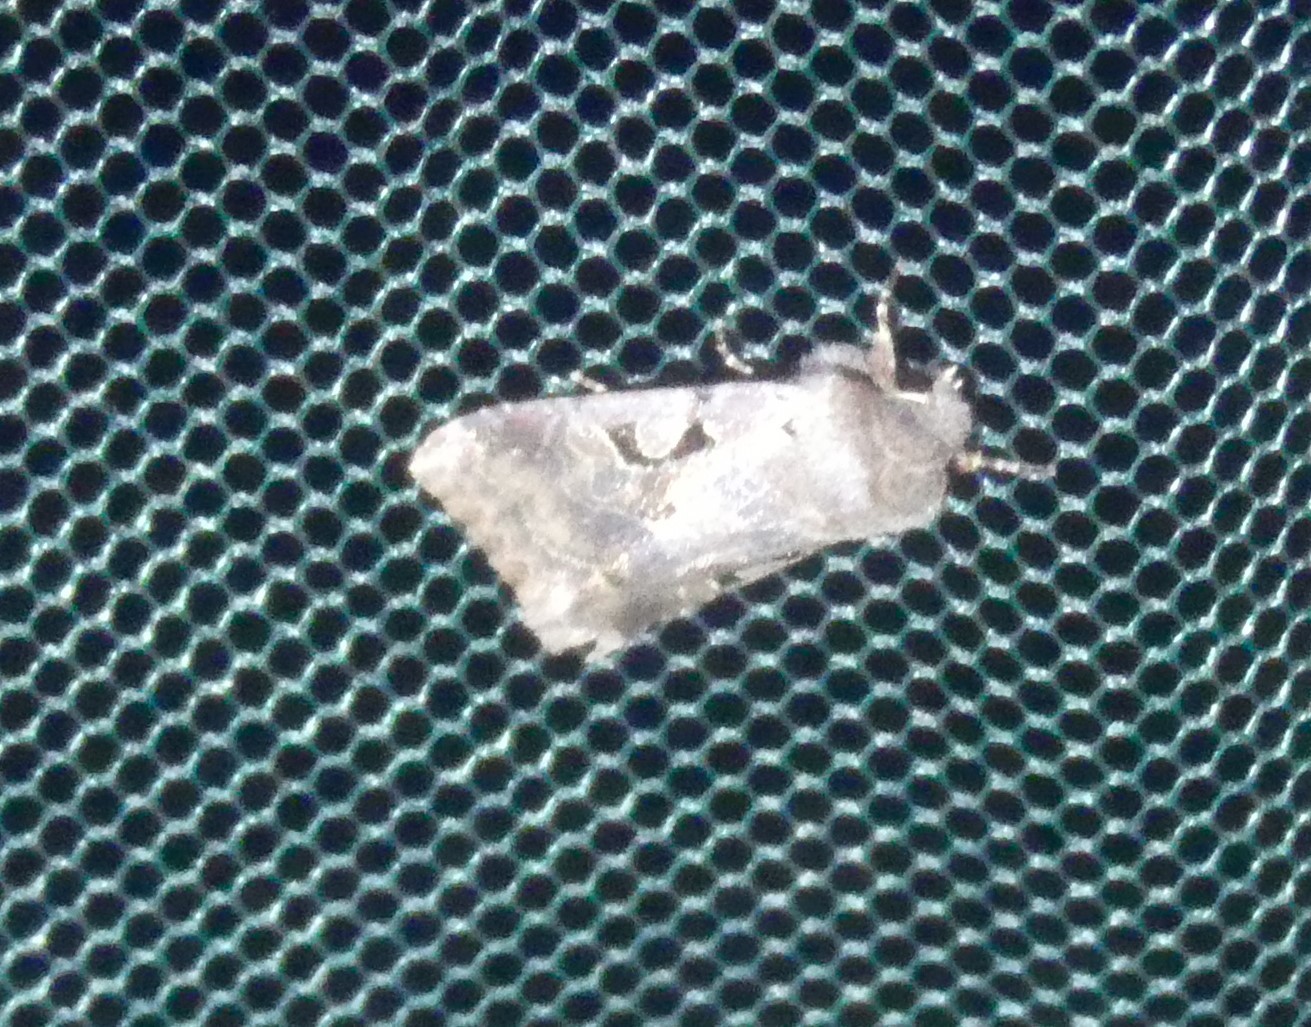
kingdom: Animalia
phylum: Arthropoda
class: Insecta
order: Lepidoptera
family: Noctuidae
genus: Orthosia
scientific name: Orthosia gothica
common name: Hebrew character
